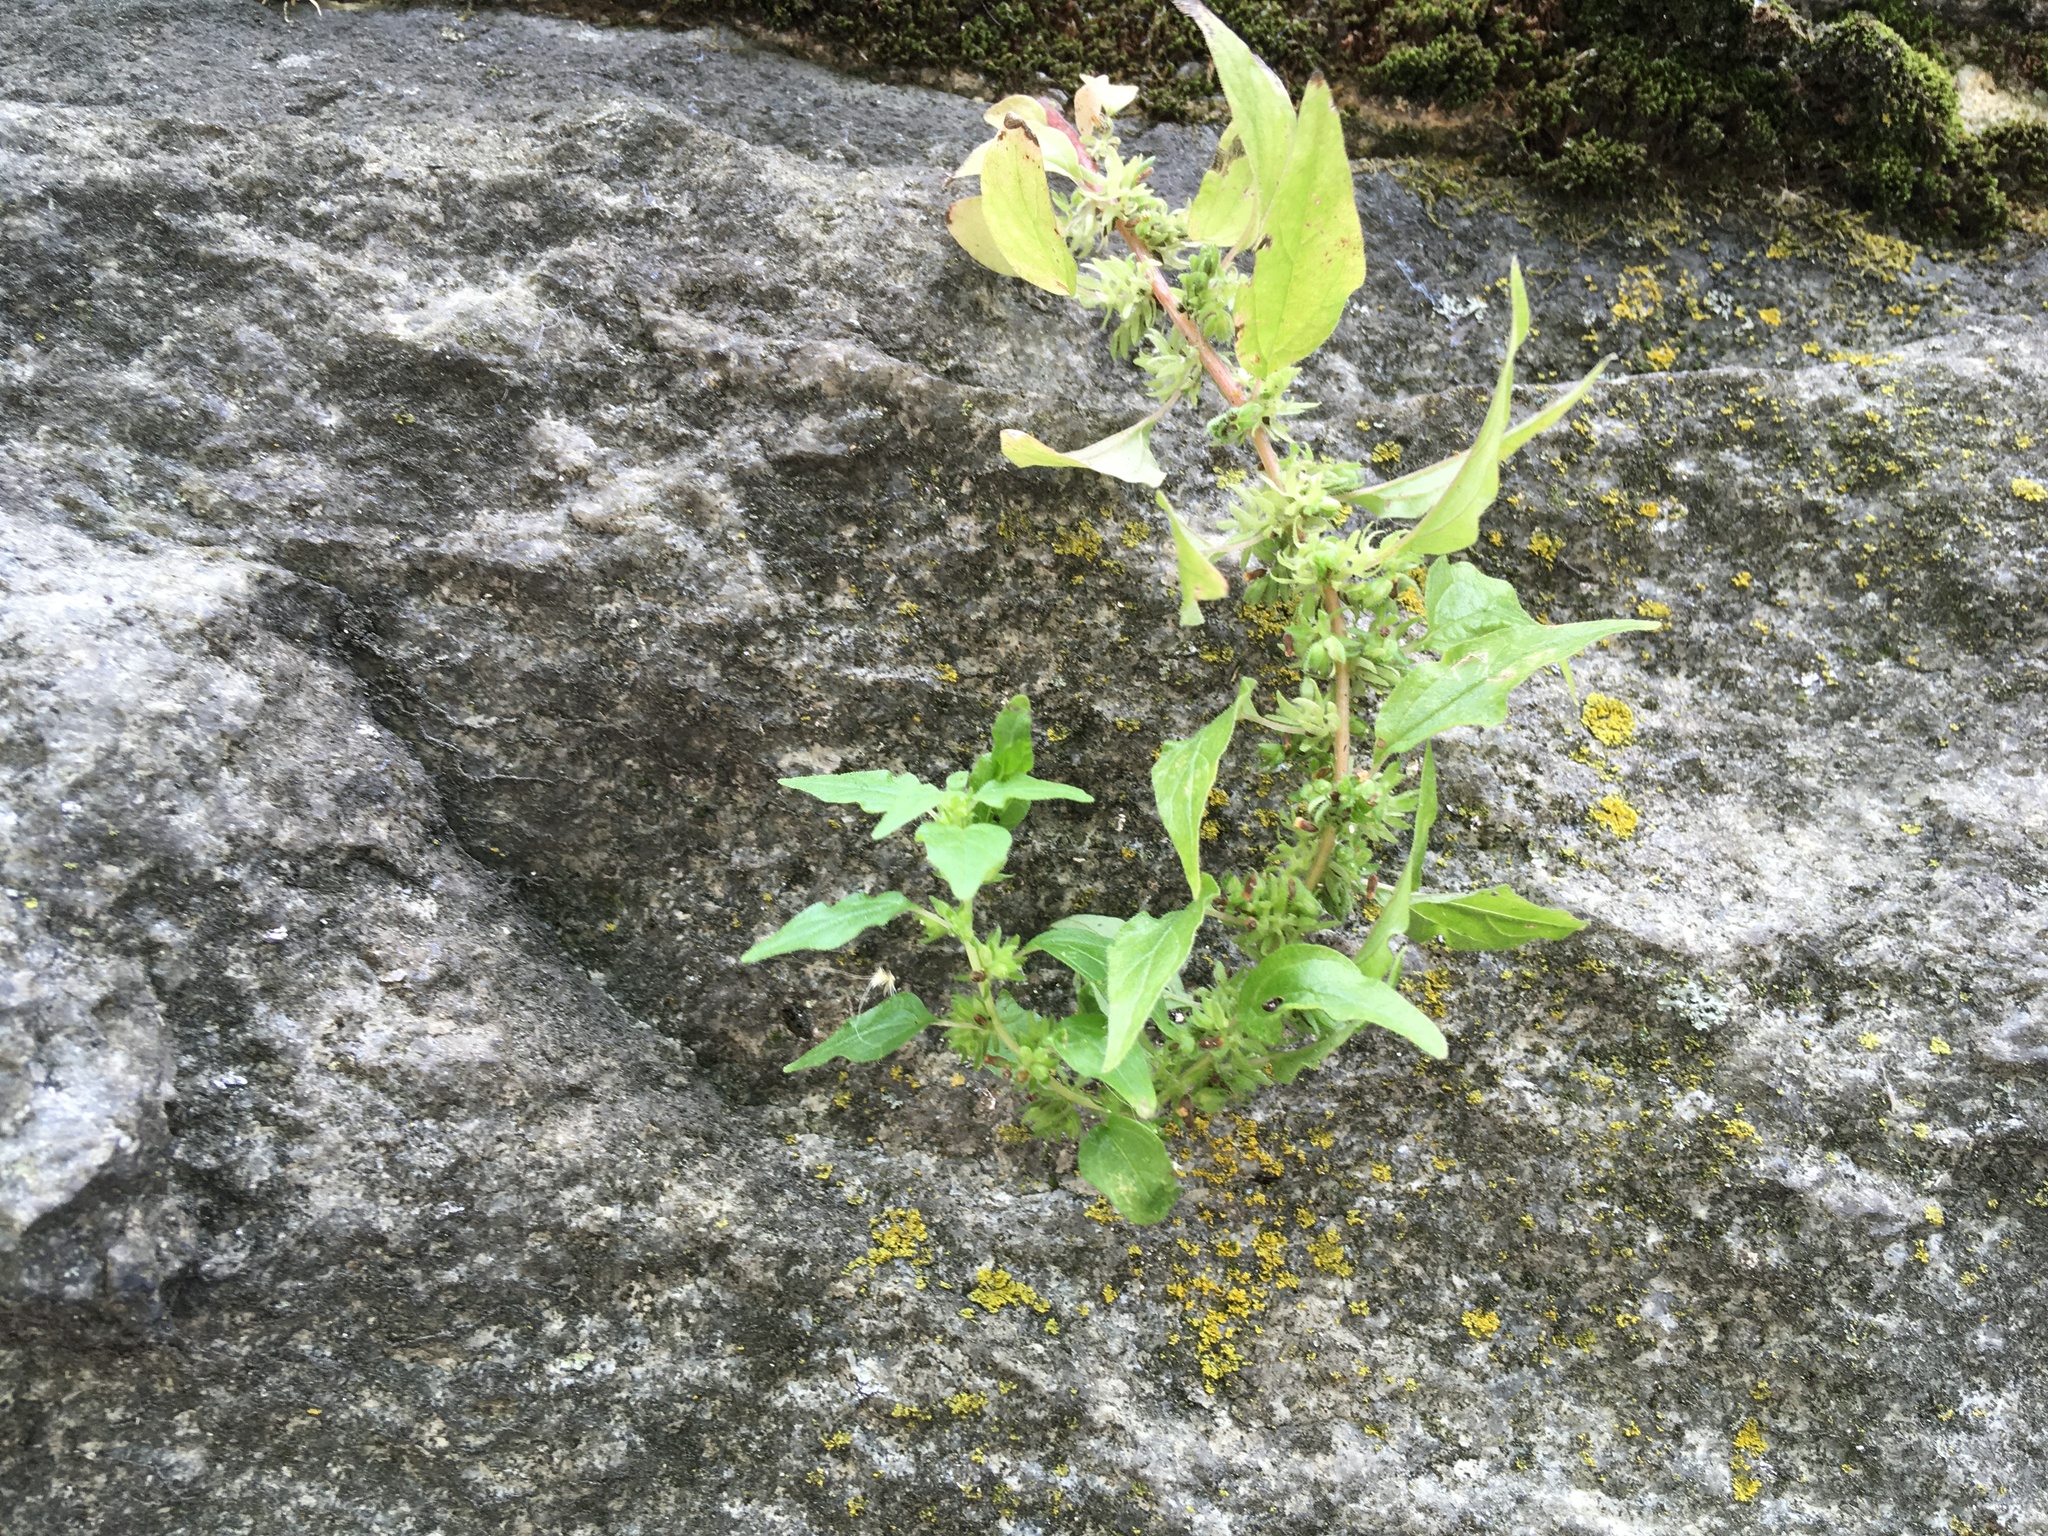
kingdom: Plantae
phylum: Tracheophyta
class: Magnoliopsida
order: Rosales
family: Urticaceae
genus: Parietaria
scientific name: Parietaria pensylvanica
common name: Pennsylvania pellitory
